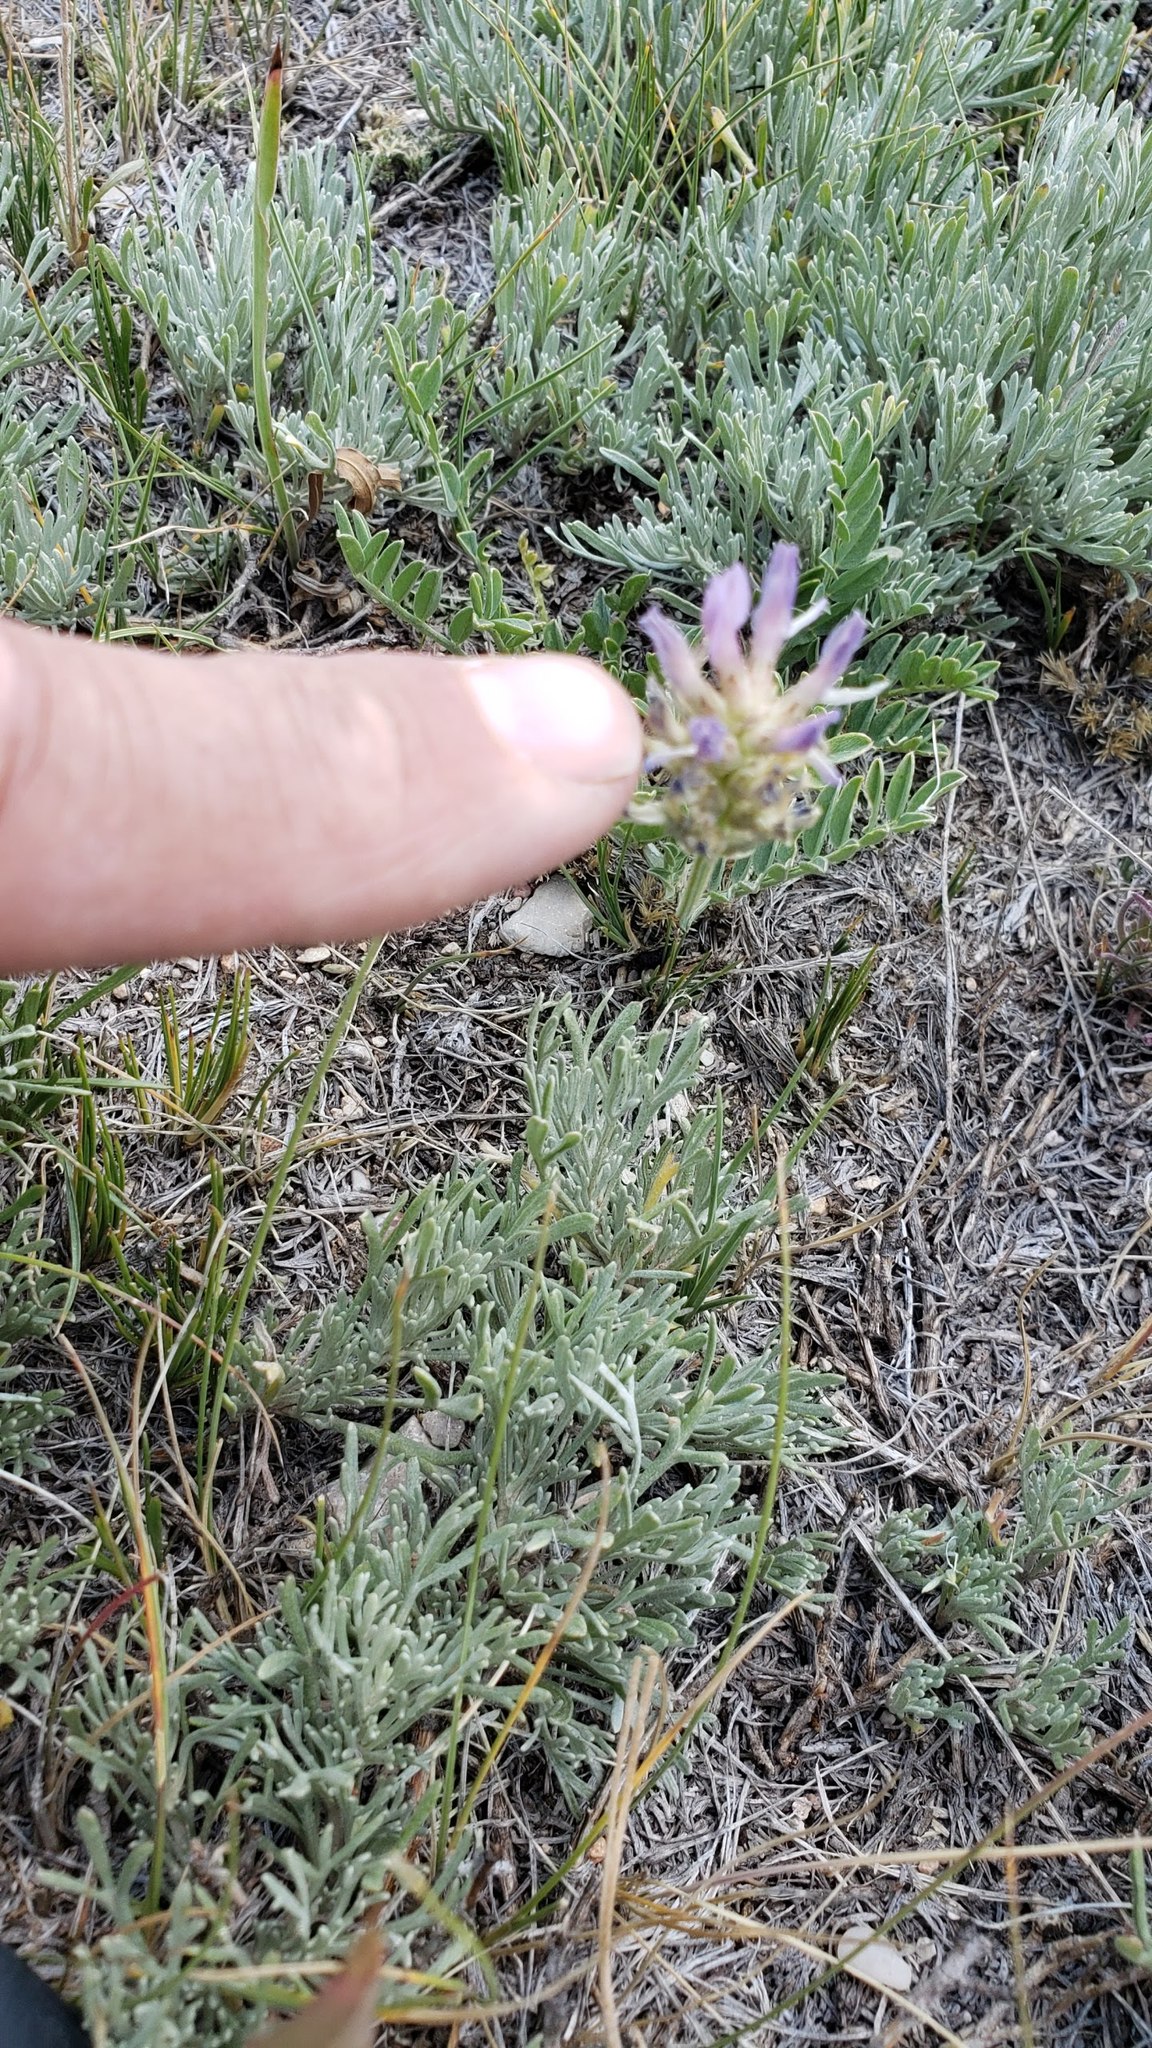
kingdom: Plantae
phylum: Tracheophyta
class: Magnoliopsida
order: Fabales
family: Fabaceae
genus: Astragalus
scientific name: Astragalus laxmannii
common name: Laxmann's milk-vetch
